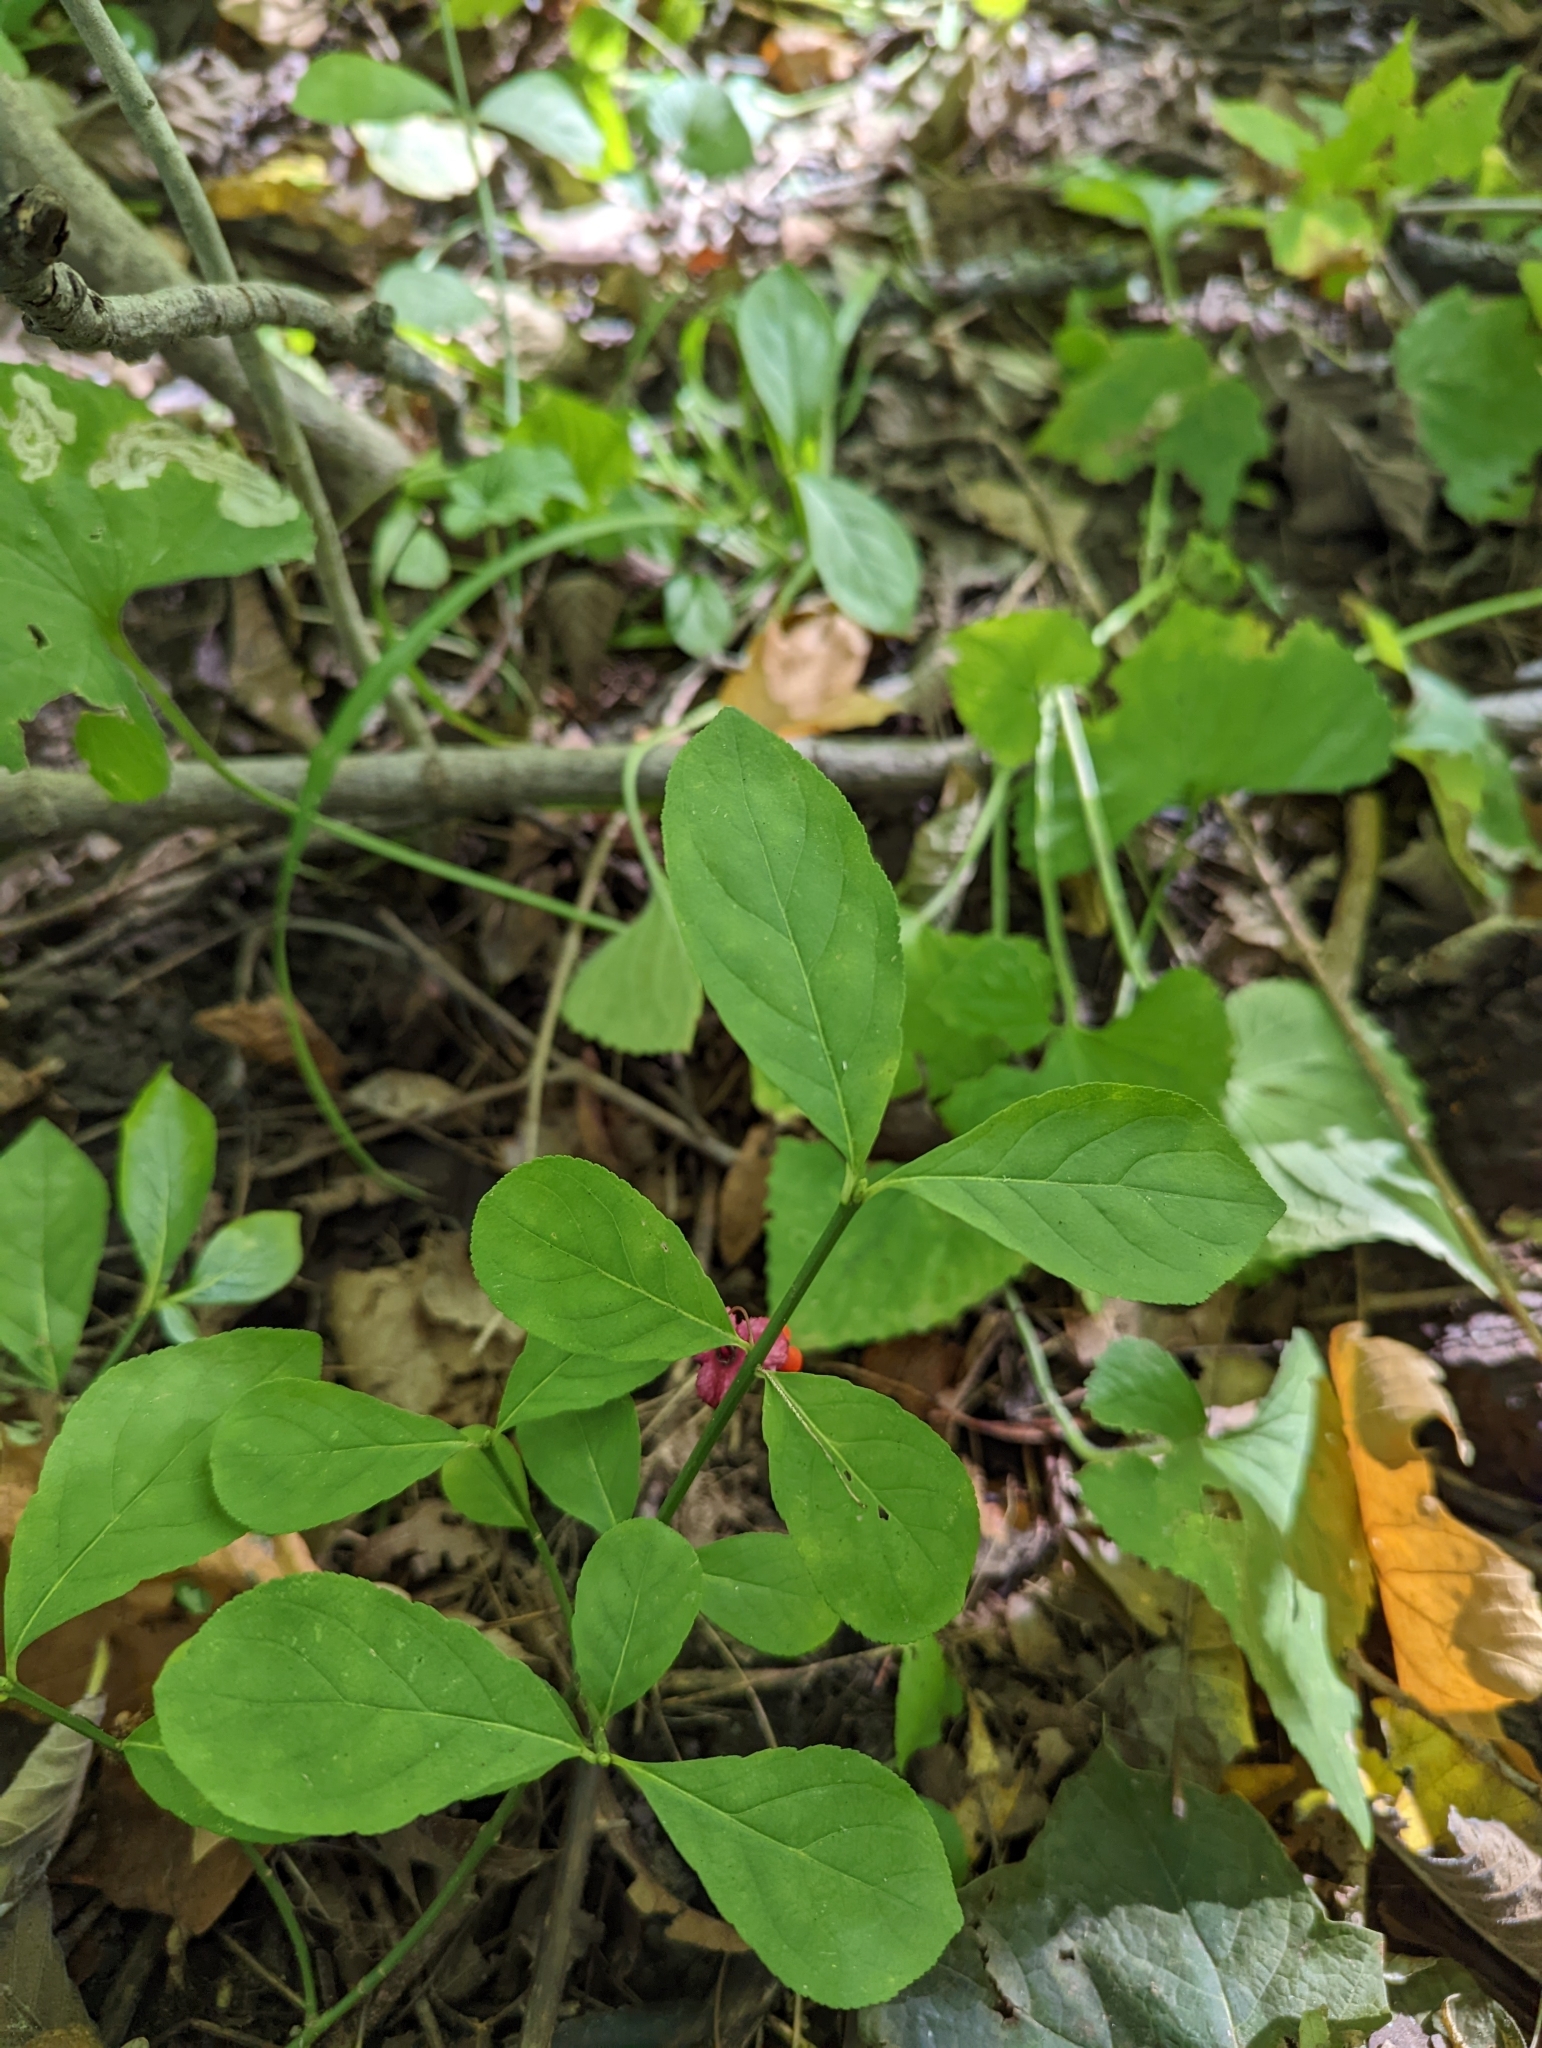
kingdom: Plantae
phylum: Tracheophyta
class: Magnoliopsida
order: Celastrales
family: Celastraceae
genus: Euonymus
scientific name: Euonymus obovatus
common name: Running strawberry-bush
